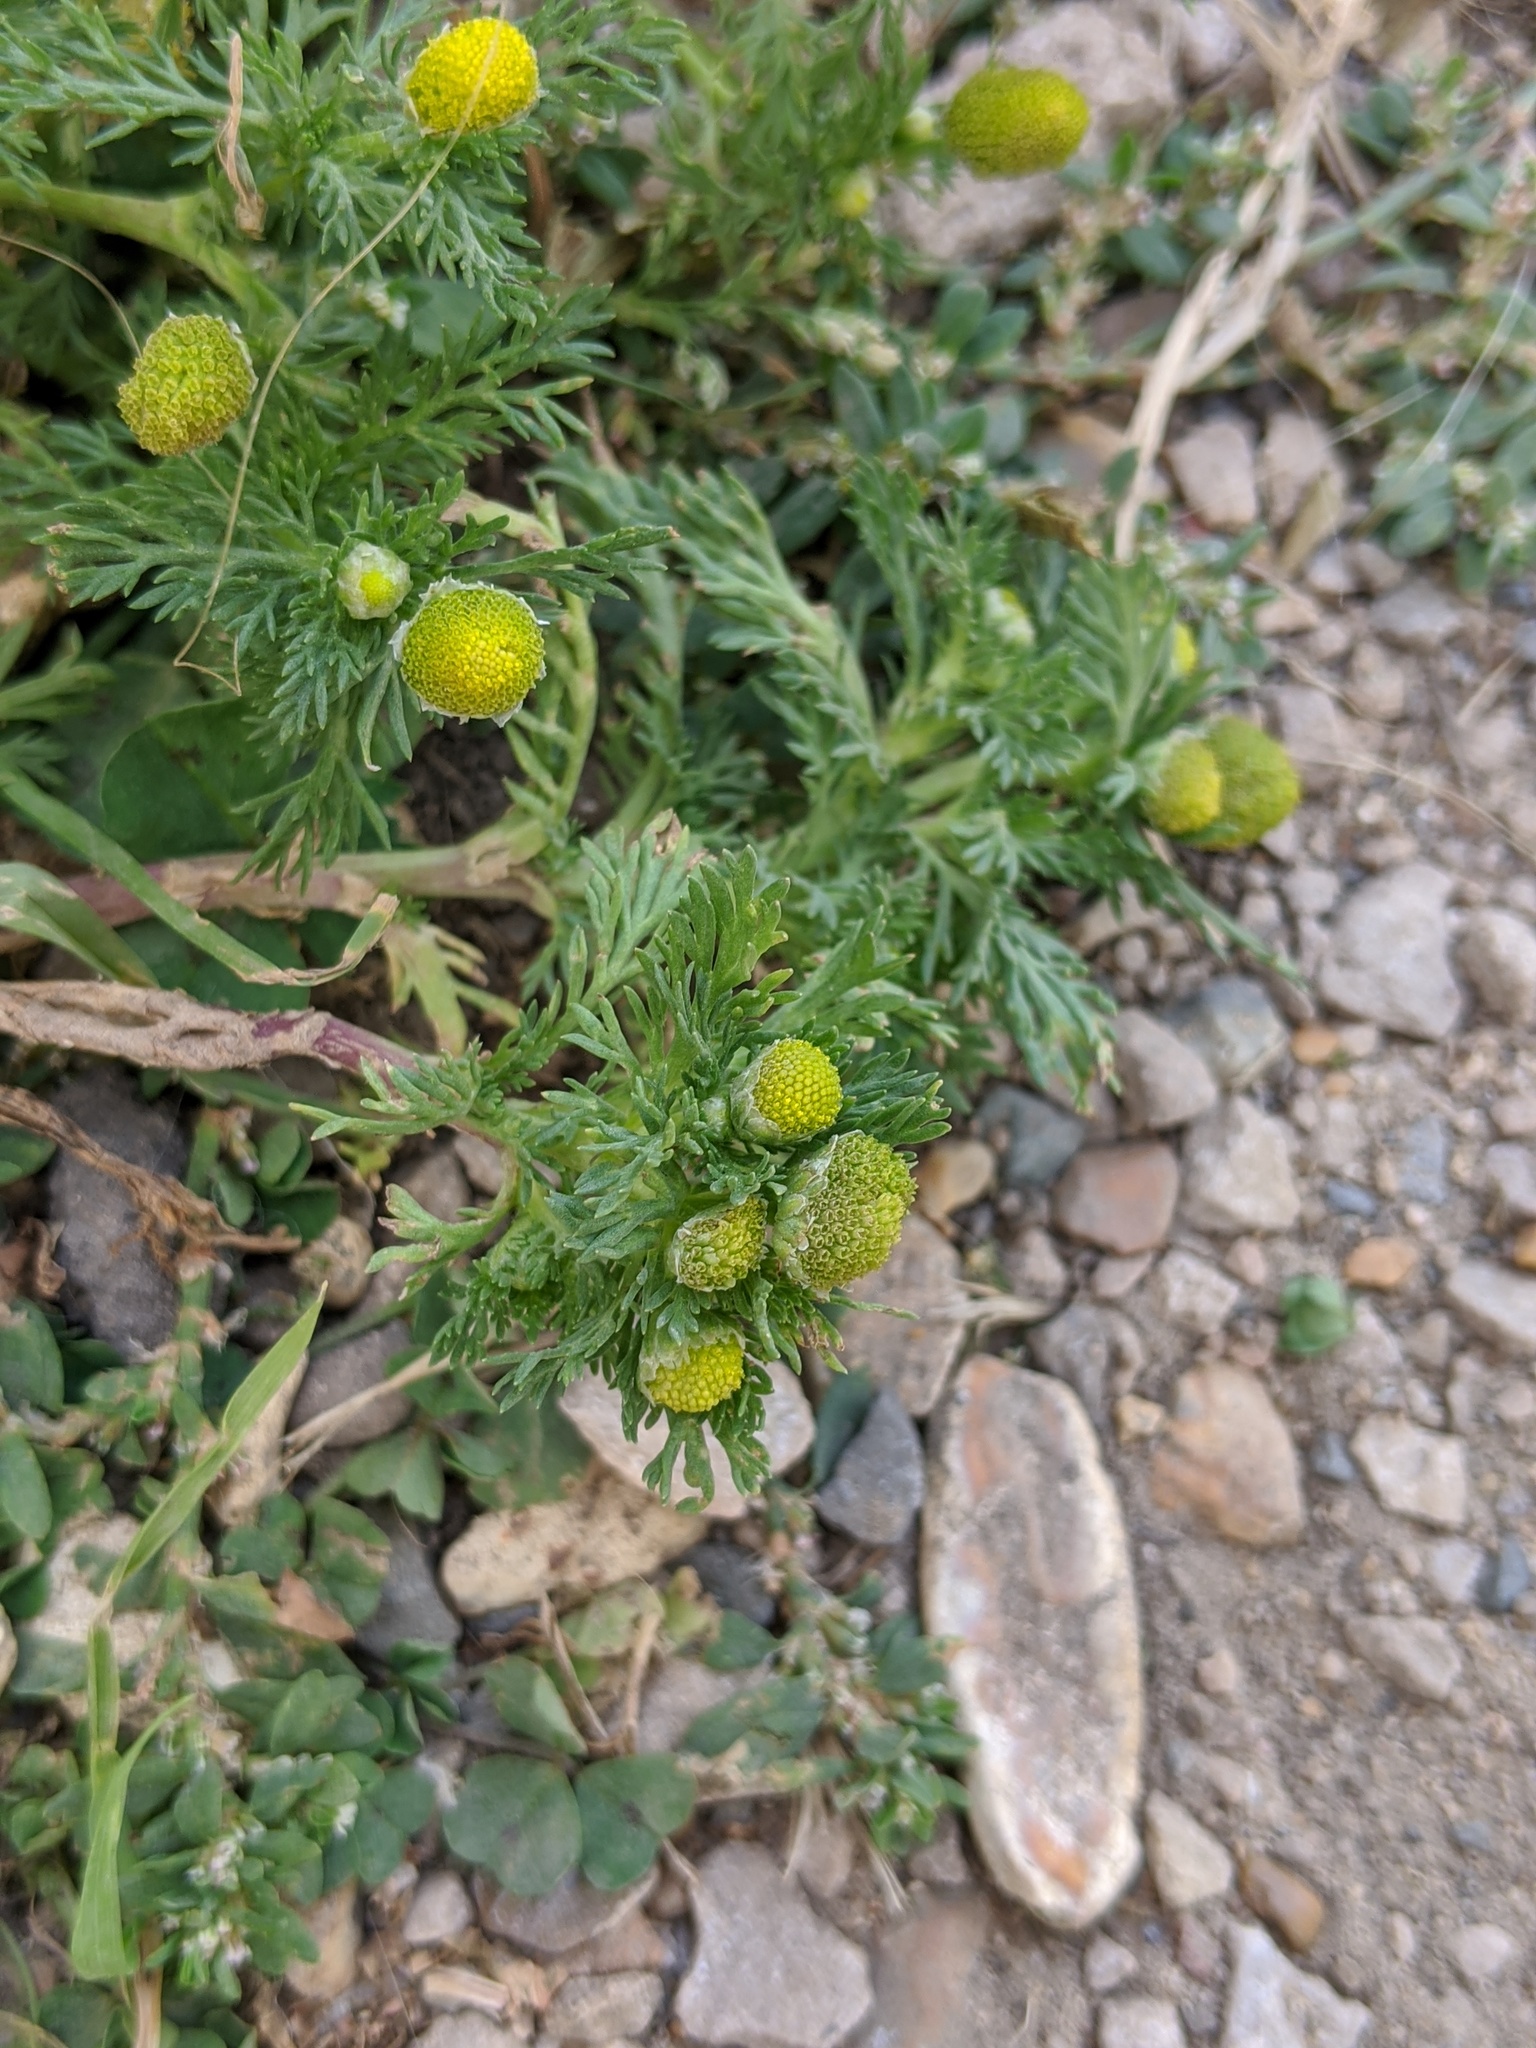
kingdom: Plantae
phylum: Tracheophyta
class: Magnoliopsida
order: Asterales
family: Asteraceae
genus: Matricaria
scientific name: Matricaria discoidea
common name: Disc mayweed
